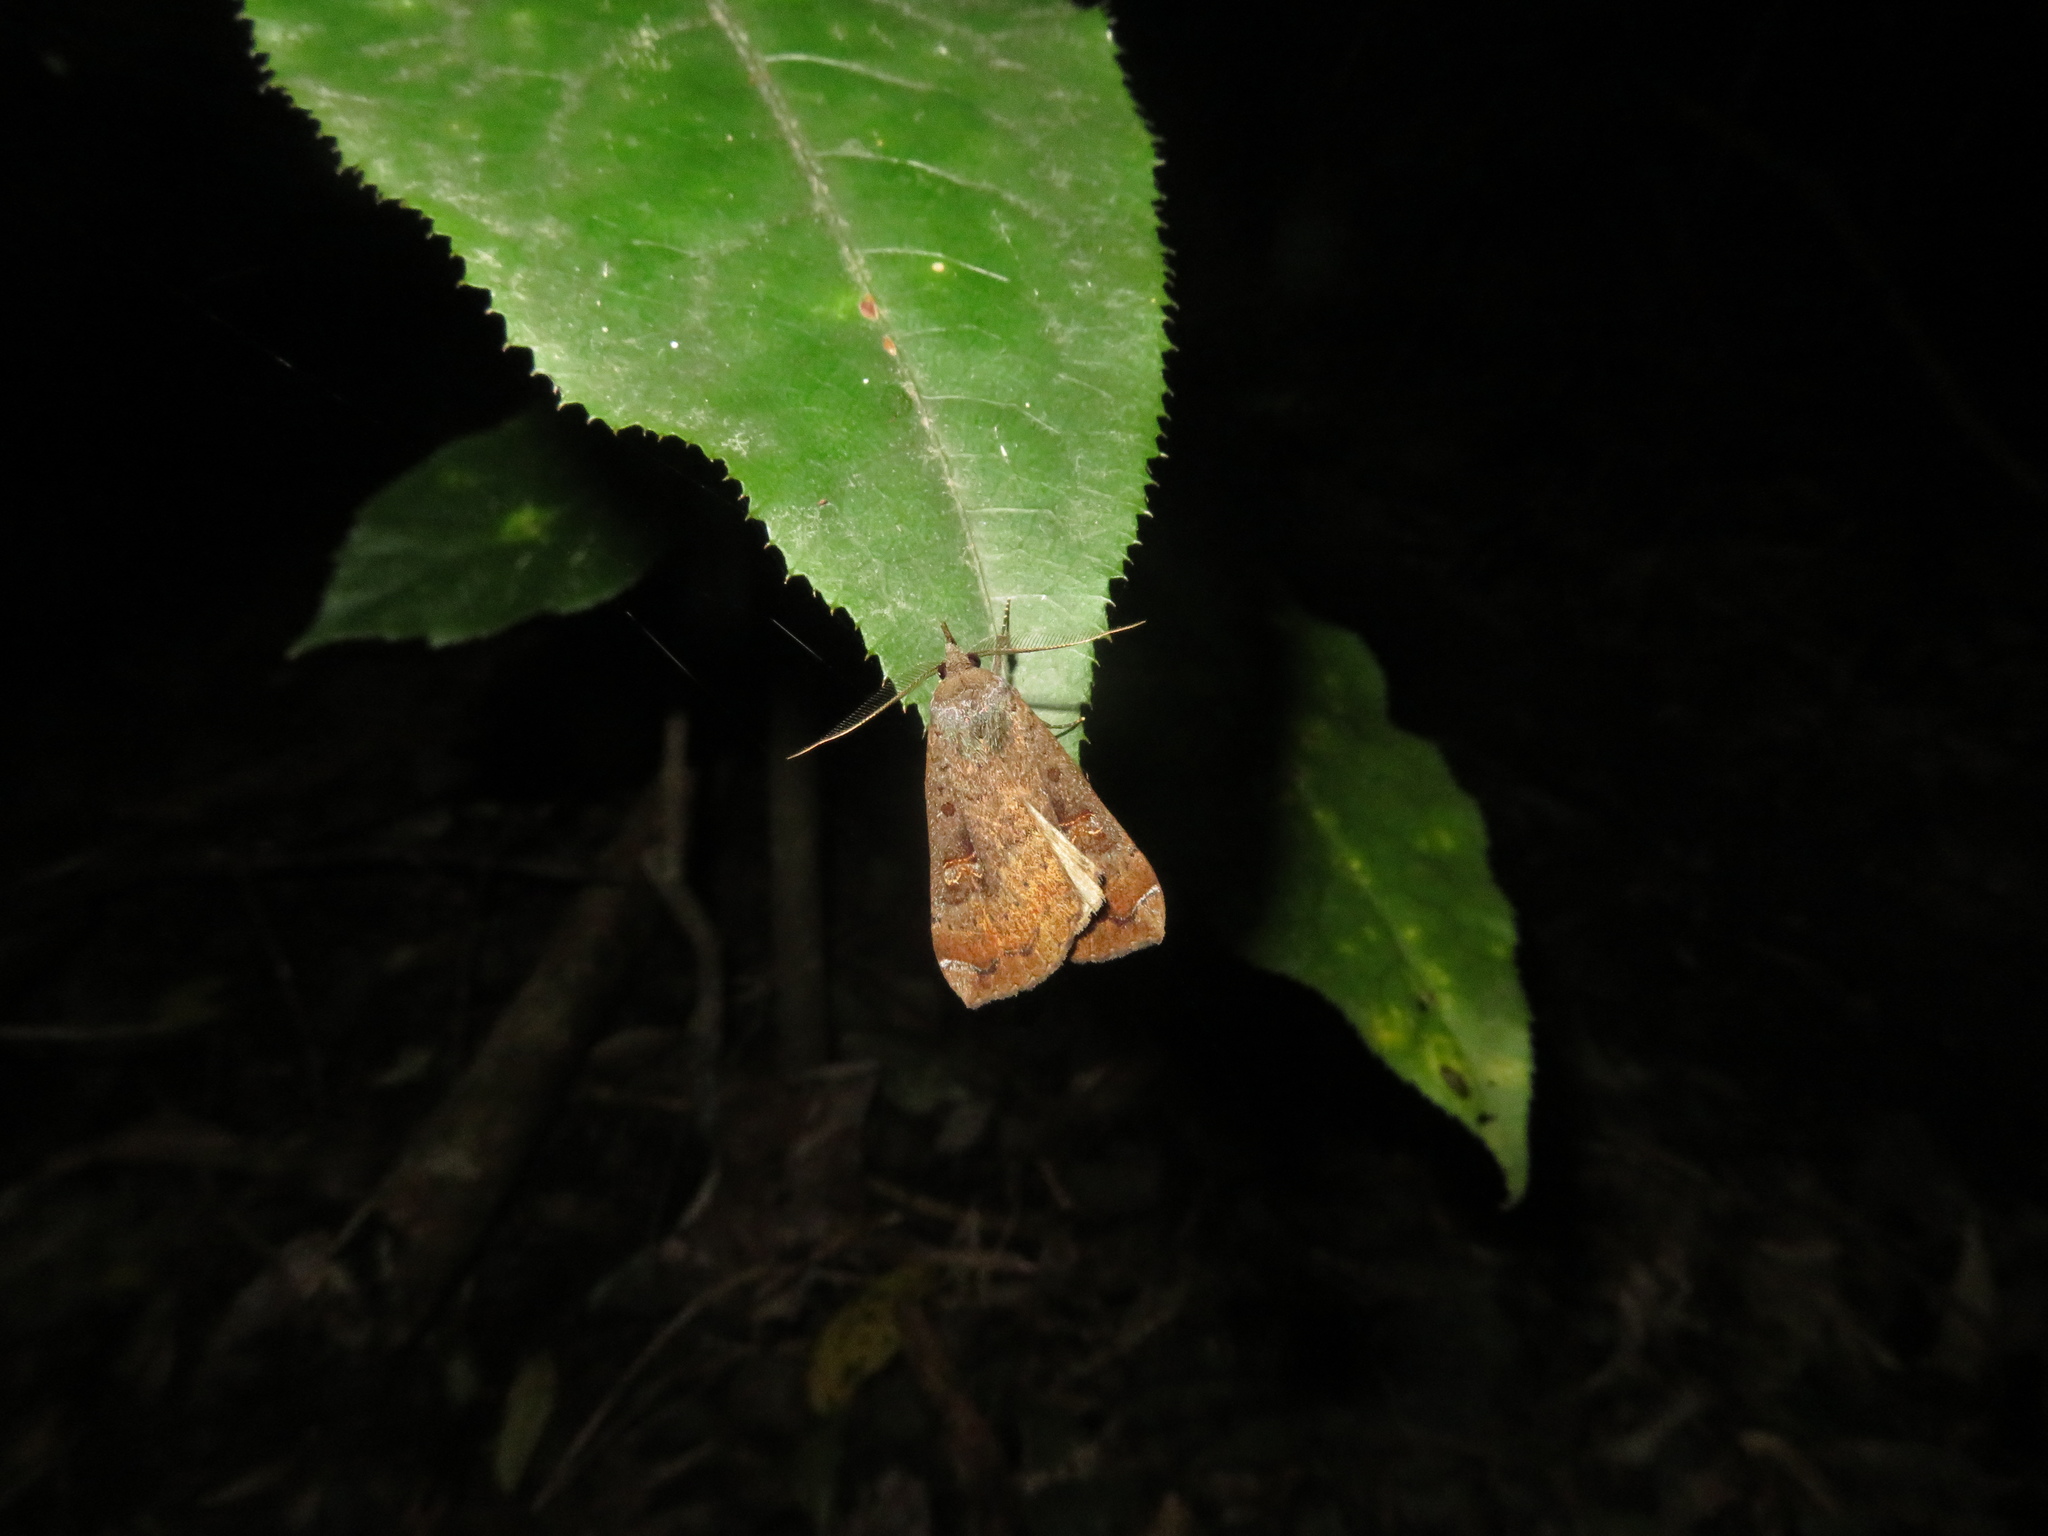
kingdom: Animalia
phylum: Arthropoda
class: Insecta
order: Lepidoptera
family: Erebidae
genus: Rhapsa
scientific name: Rhapsa scotosialis
